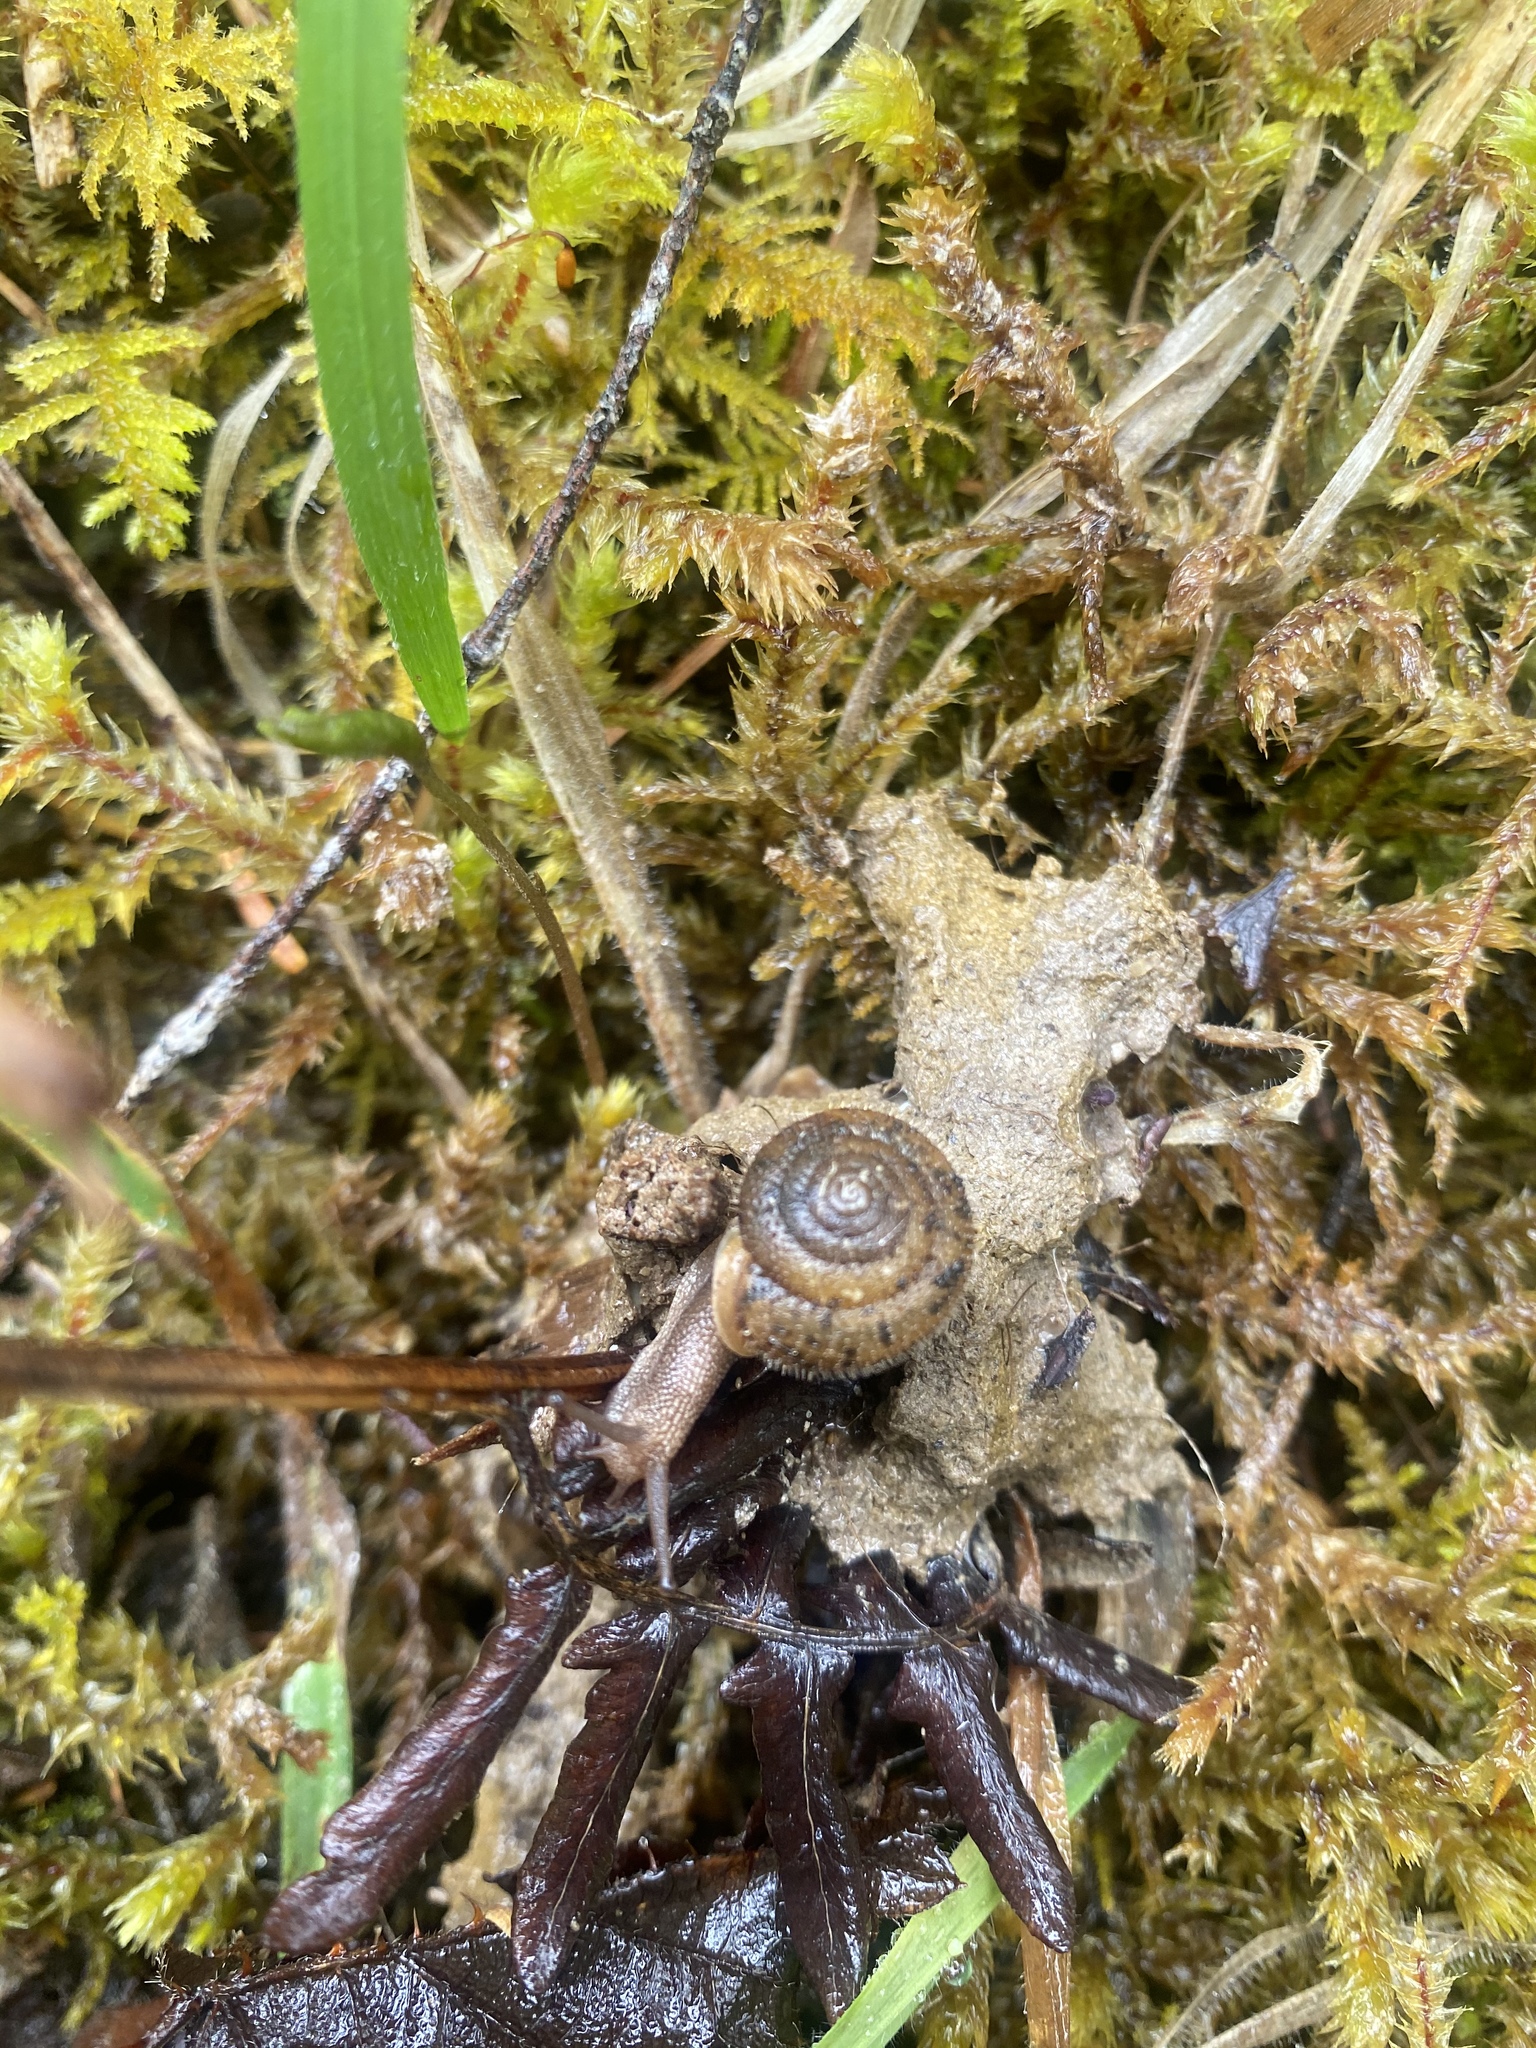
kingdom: Animalia
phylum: Mollusca
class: Gastropoda
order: Stylommatophora
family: Polygyridae
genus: Vespericola
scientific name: Vespericola columbianus
